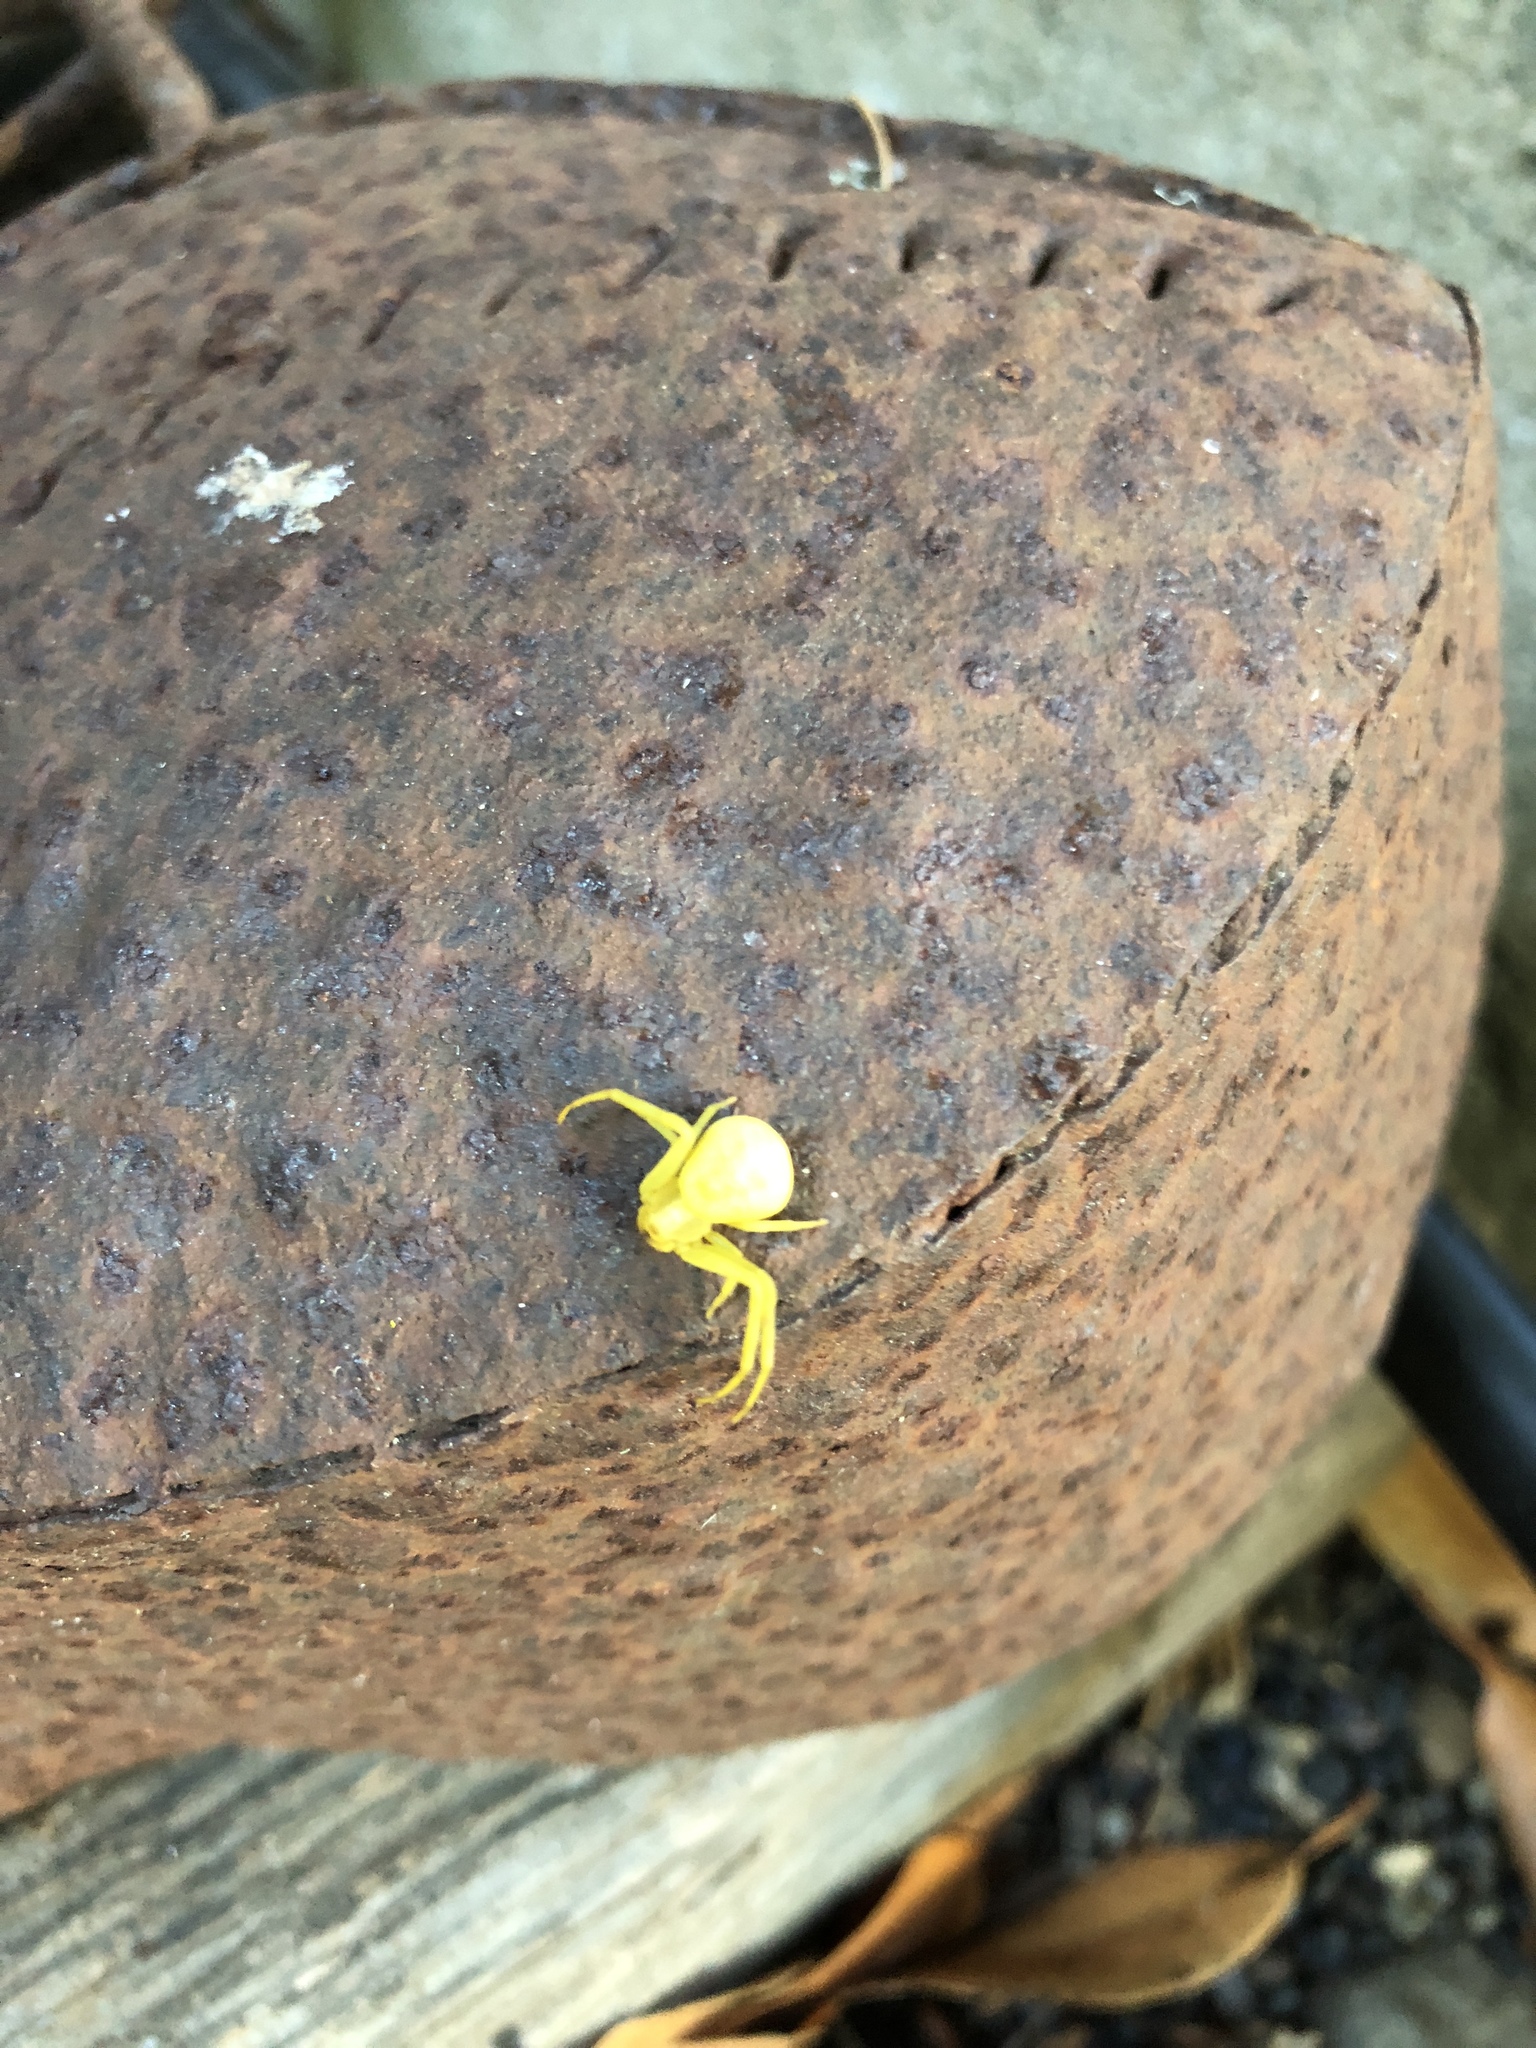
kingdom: Animalia
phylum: Arthropoda
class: Arachnida
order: Araneae
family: Thomisidae
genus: Misumena
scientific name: Misumena vatia
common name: Goldenrod crab spider
